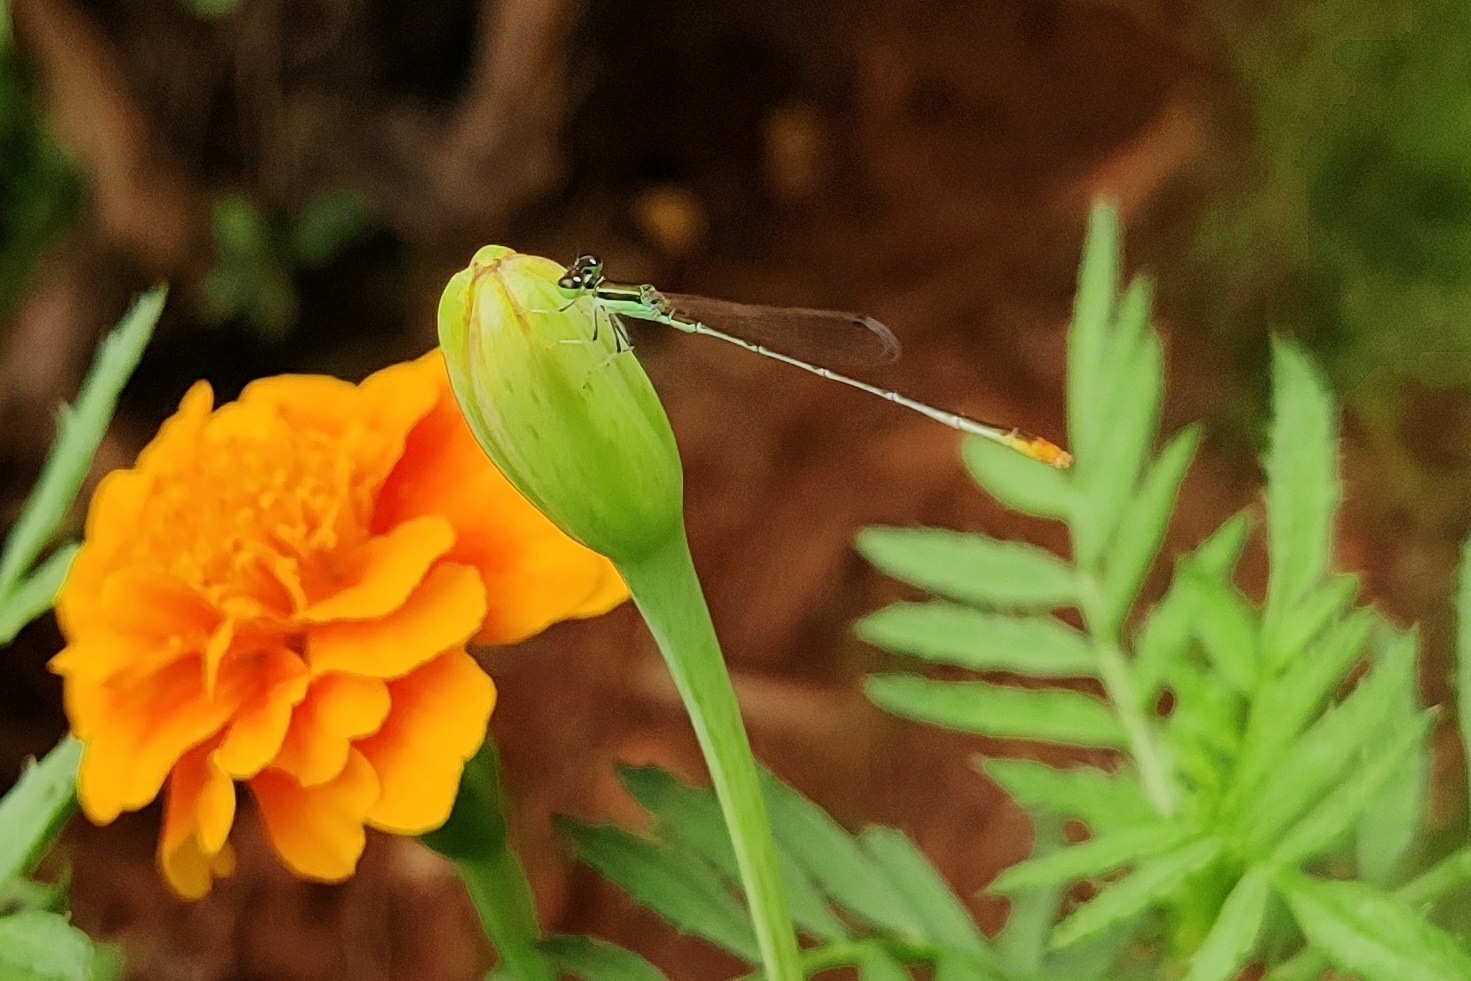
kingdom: Animalia
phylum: Arthropoda
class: Insecta
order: Odonata
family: Coenagrionidae
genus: Agriocnemis
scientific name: Agriocnemis pygmaea
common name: Pygmy wisp
